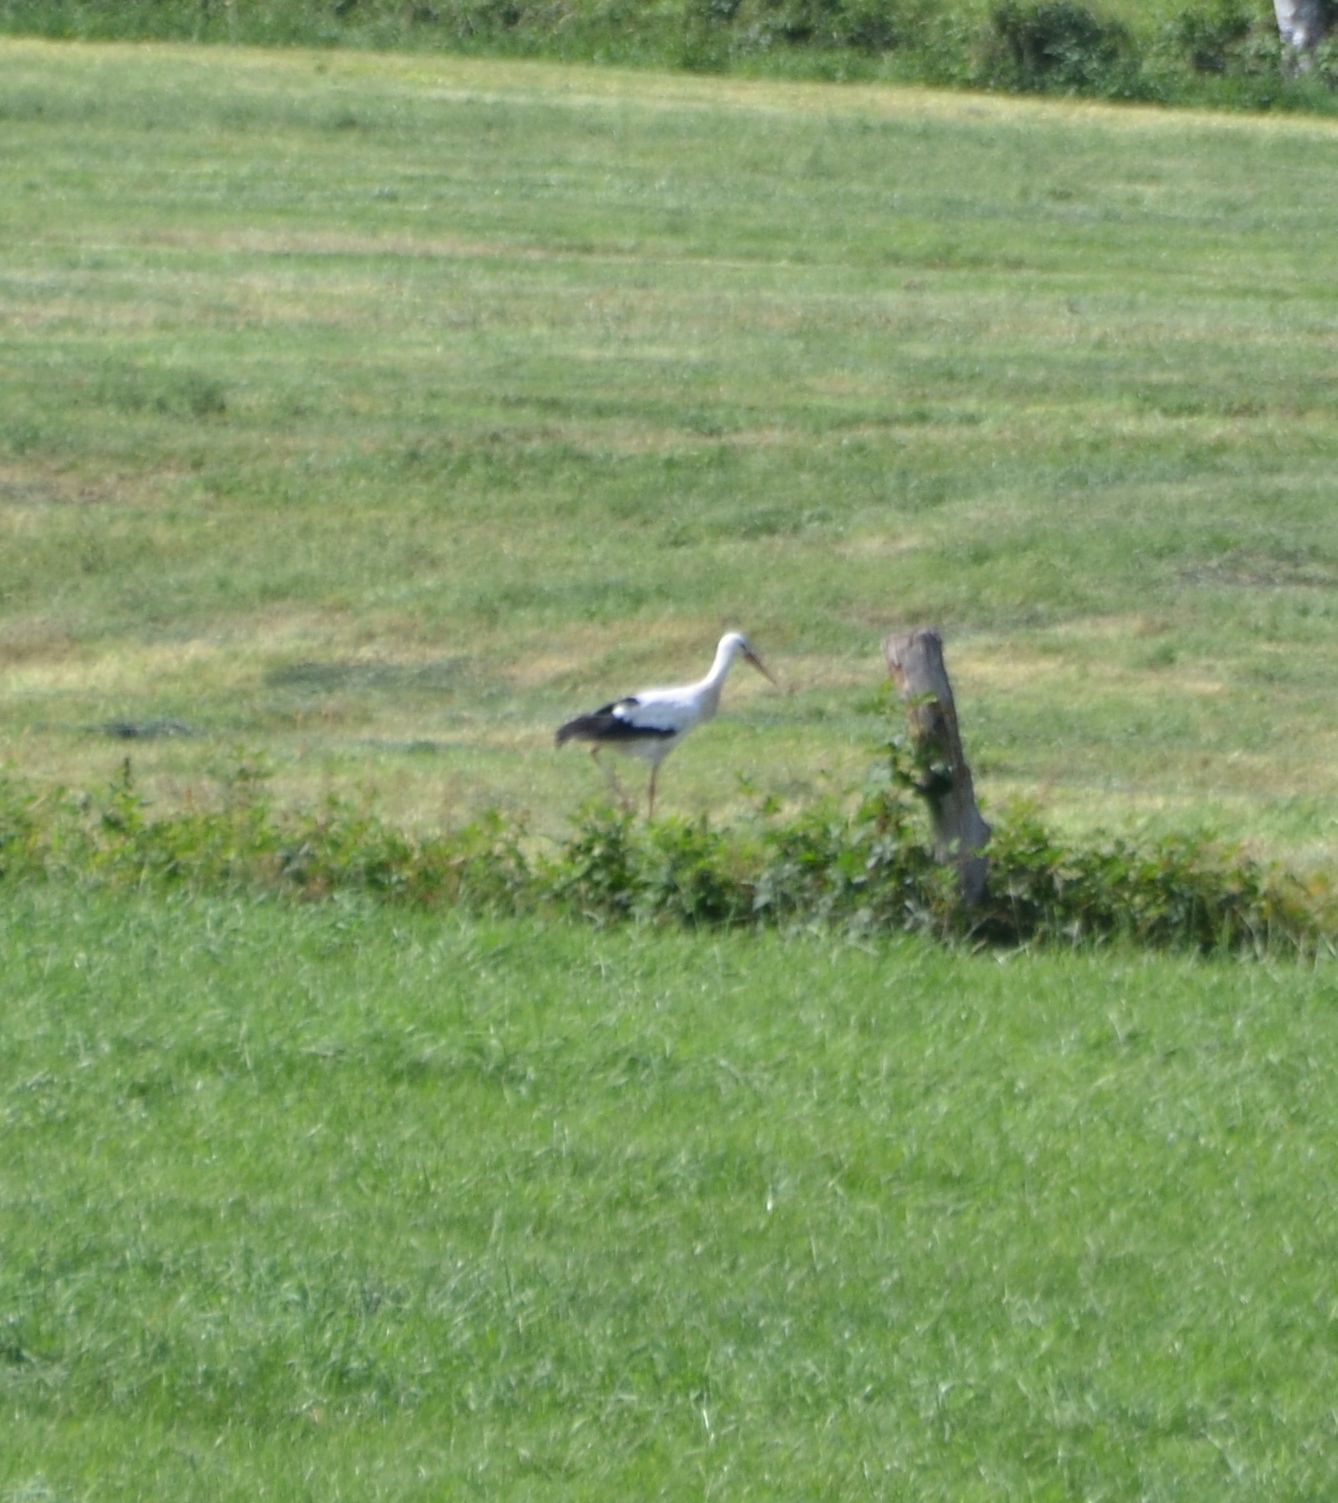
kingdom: Animalia
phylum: Chordata
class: Aves
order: Ciconiiformes
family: Ciconiidae
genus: Ciconia
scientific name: Ciconia ciconia
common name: White stork
